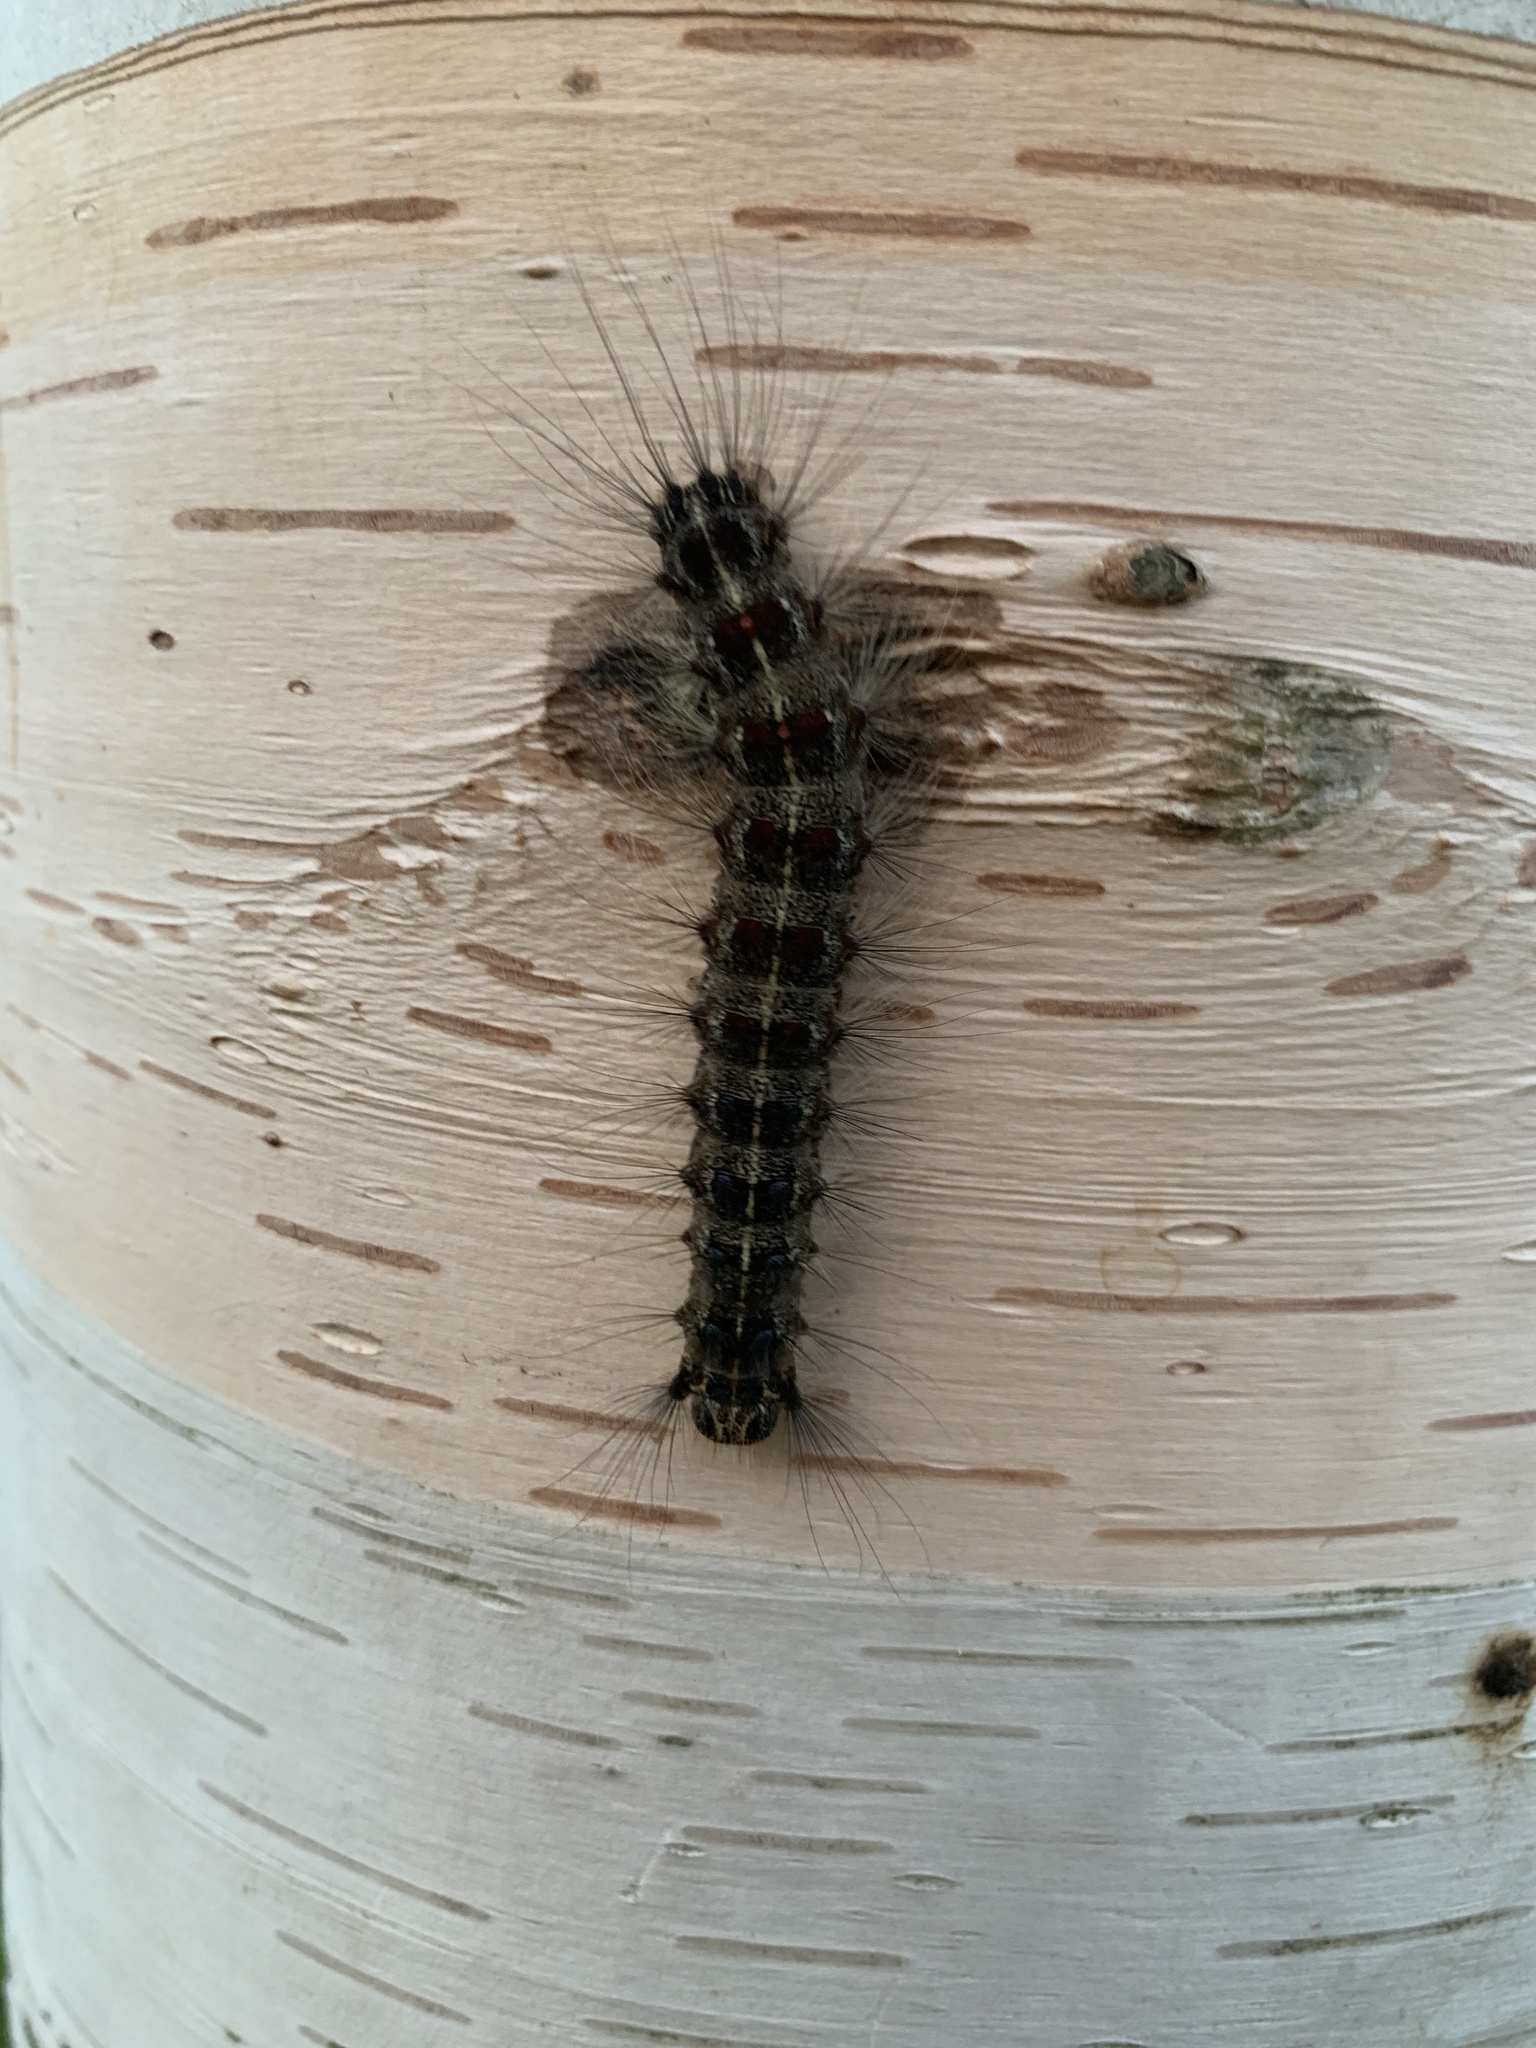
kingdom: Animalia
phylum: Arthropoda
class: Insecta
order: Lepidoptera
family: Erebidae
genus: Lymantria
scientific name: Lymantria dispar
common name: Gypsy moth
